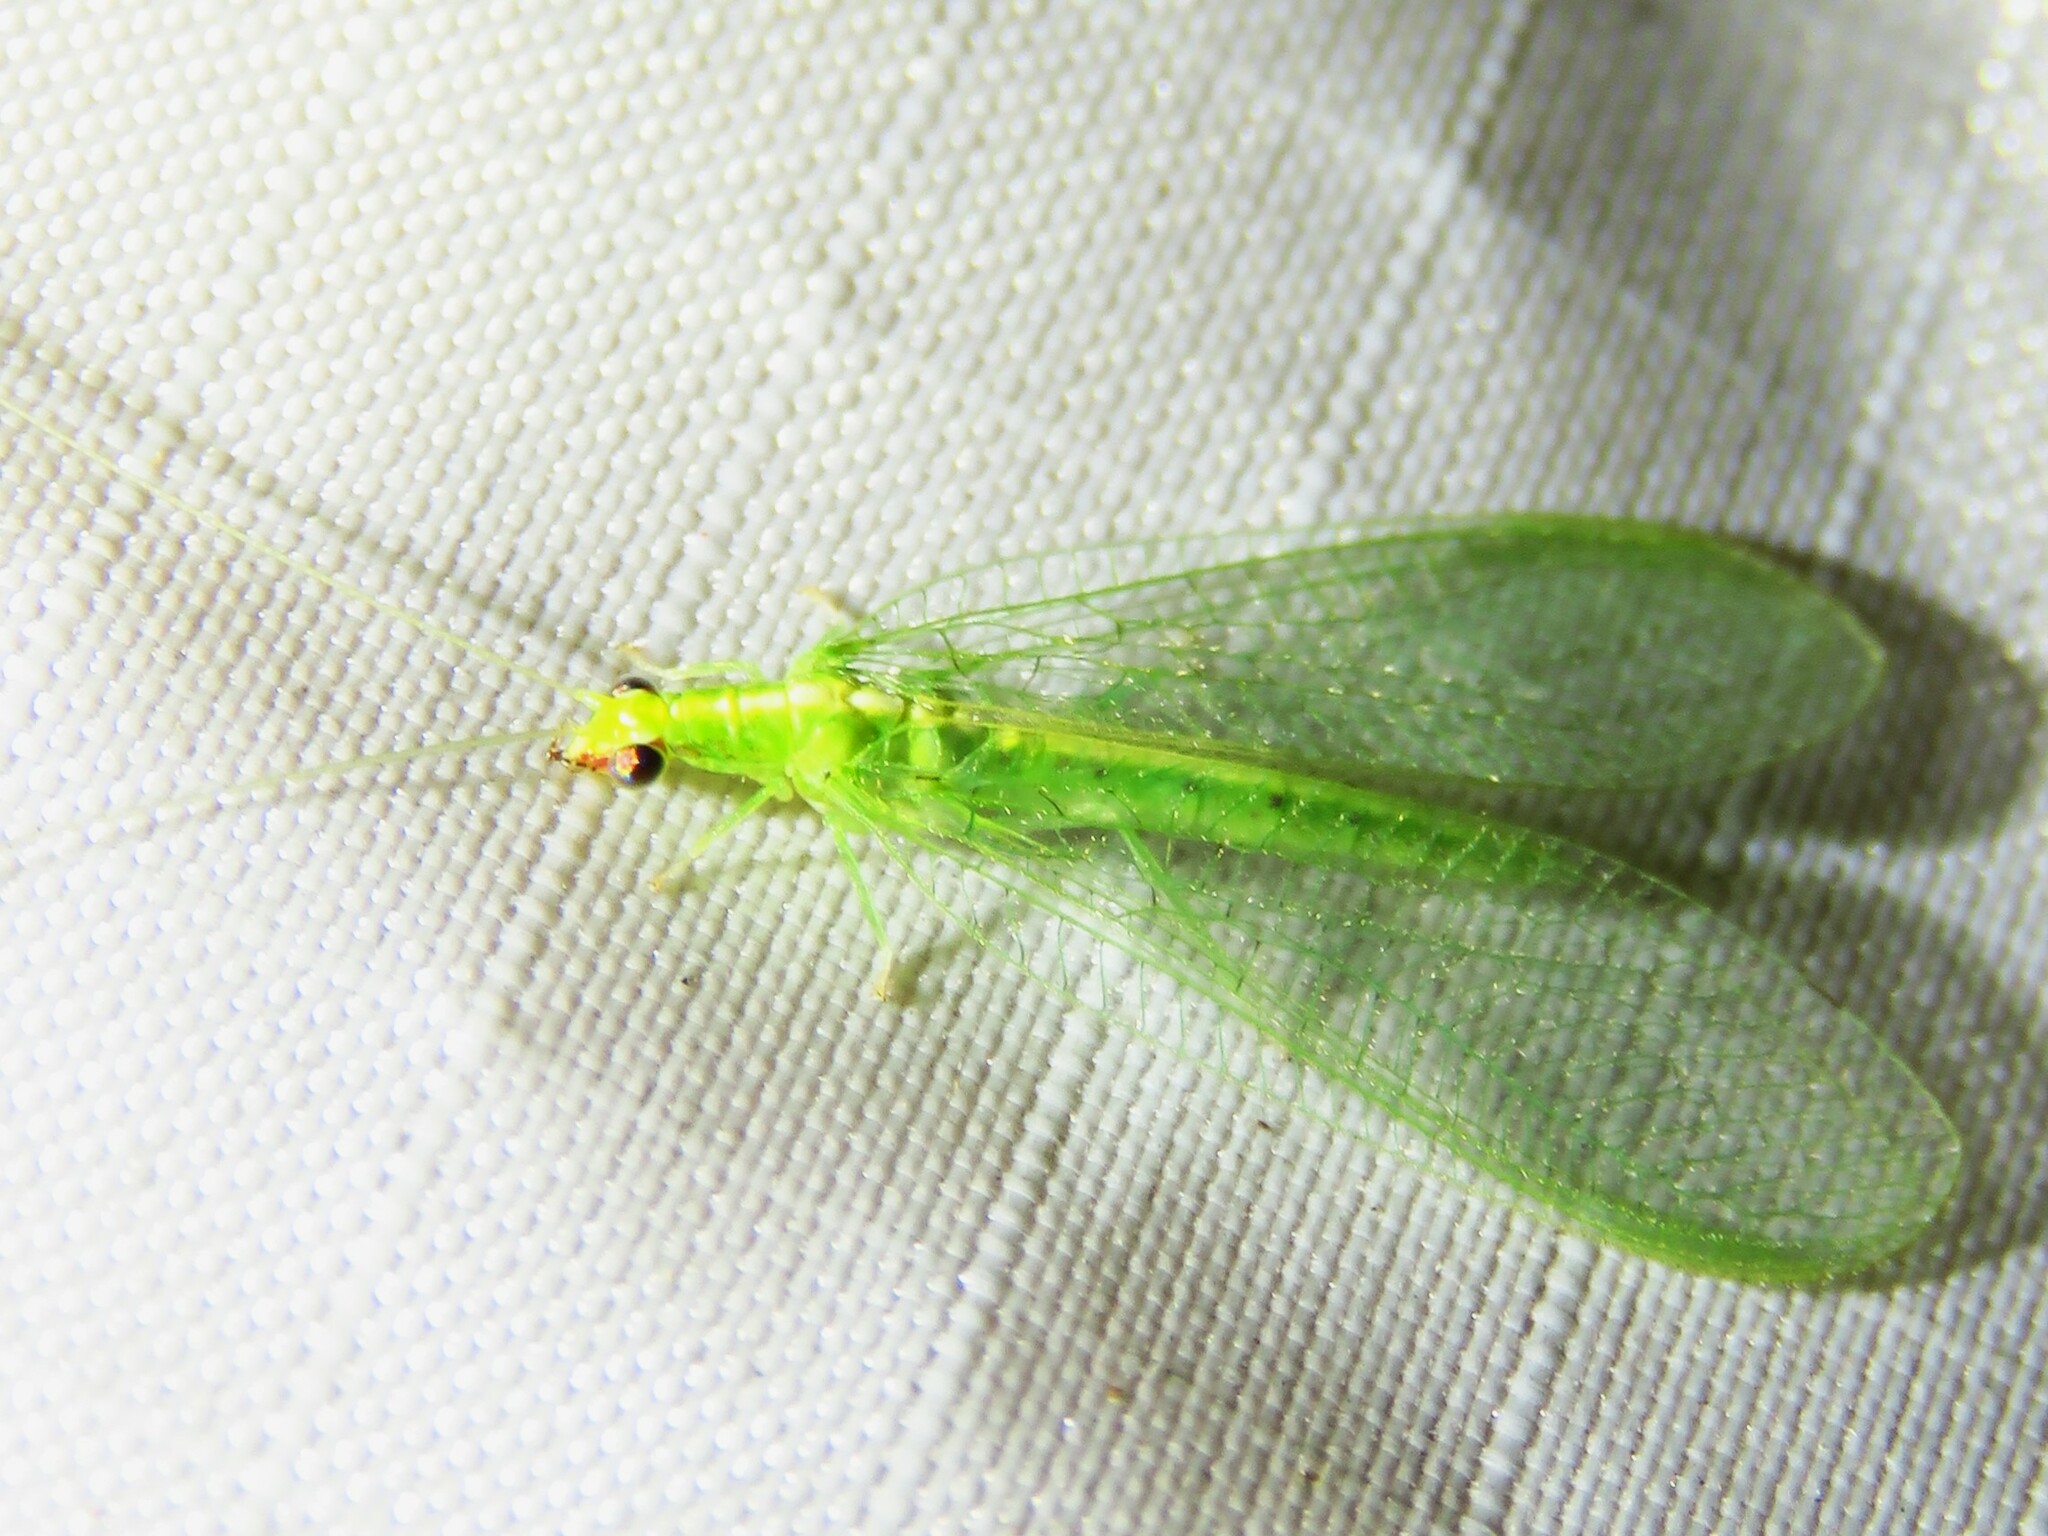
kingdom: Animalia
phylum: Arthropoda
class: Insecta
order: Neuroptera
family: Chrysopidae
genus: Chrysoperla
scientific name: Chrysoperla rufilabris
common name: Red-lipped green lacewing
